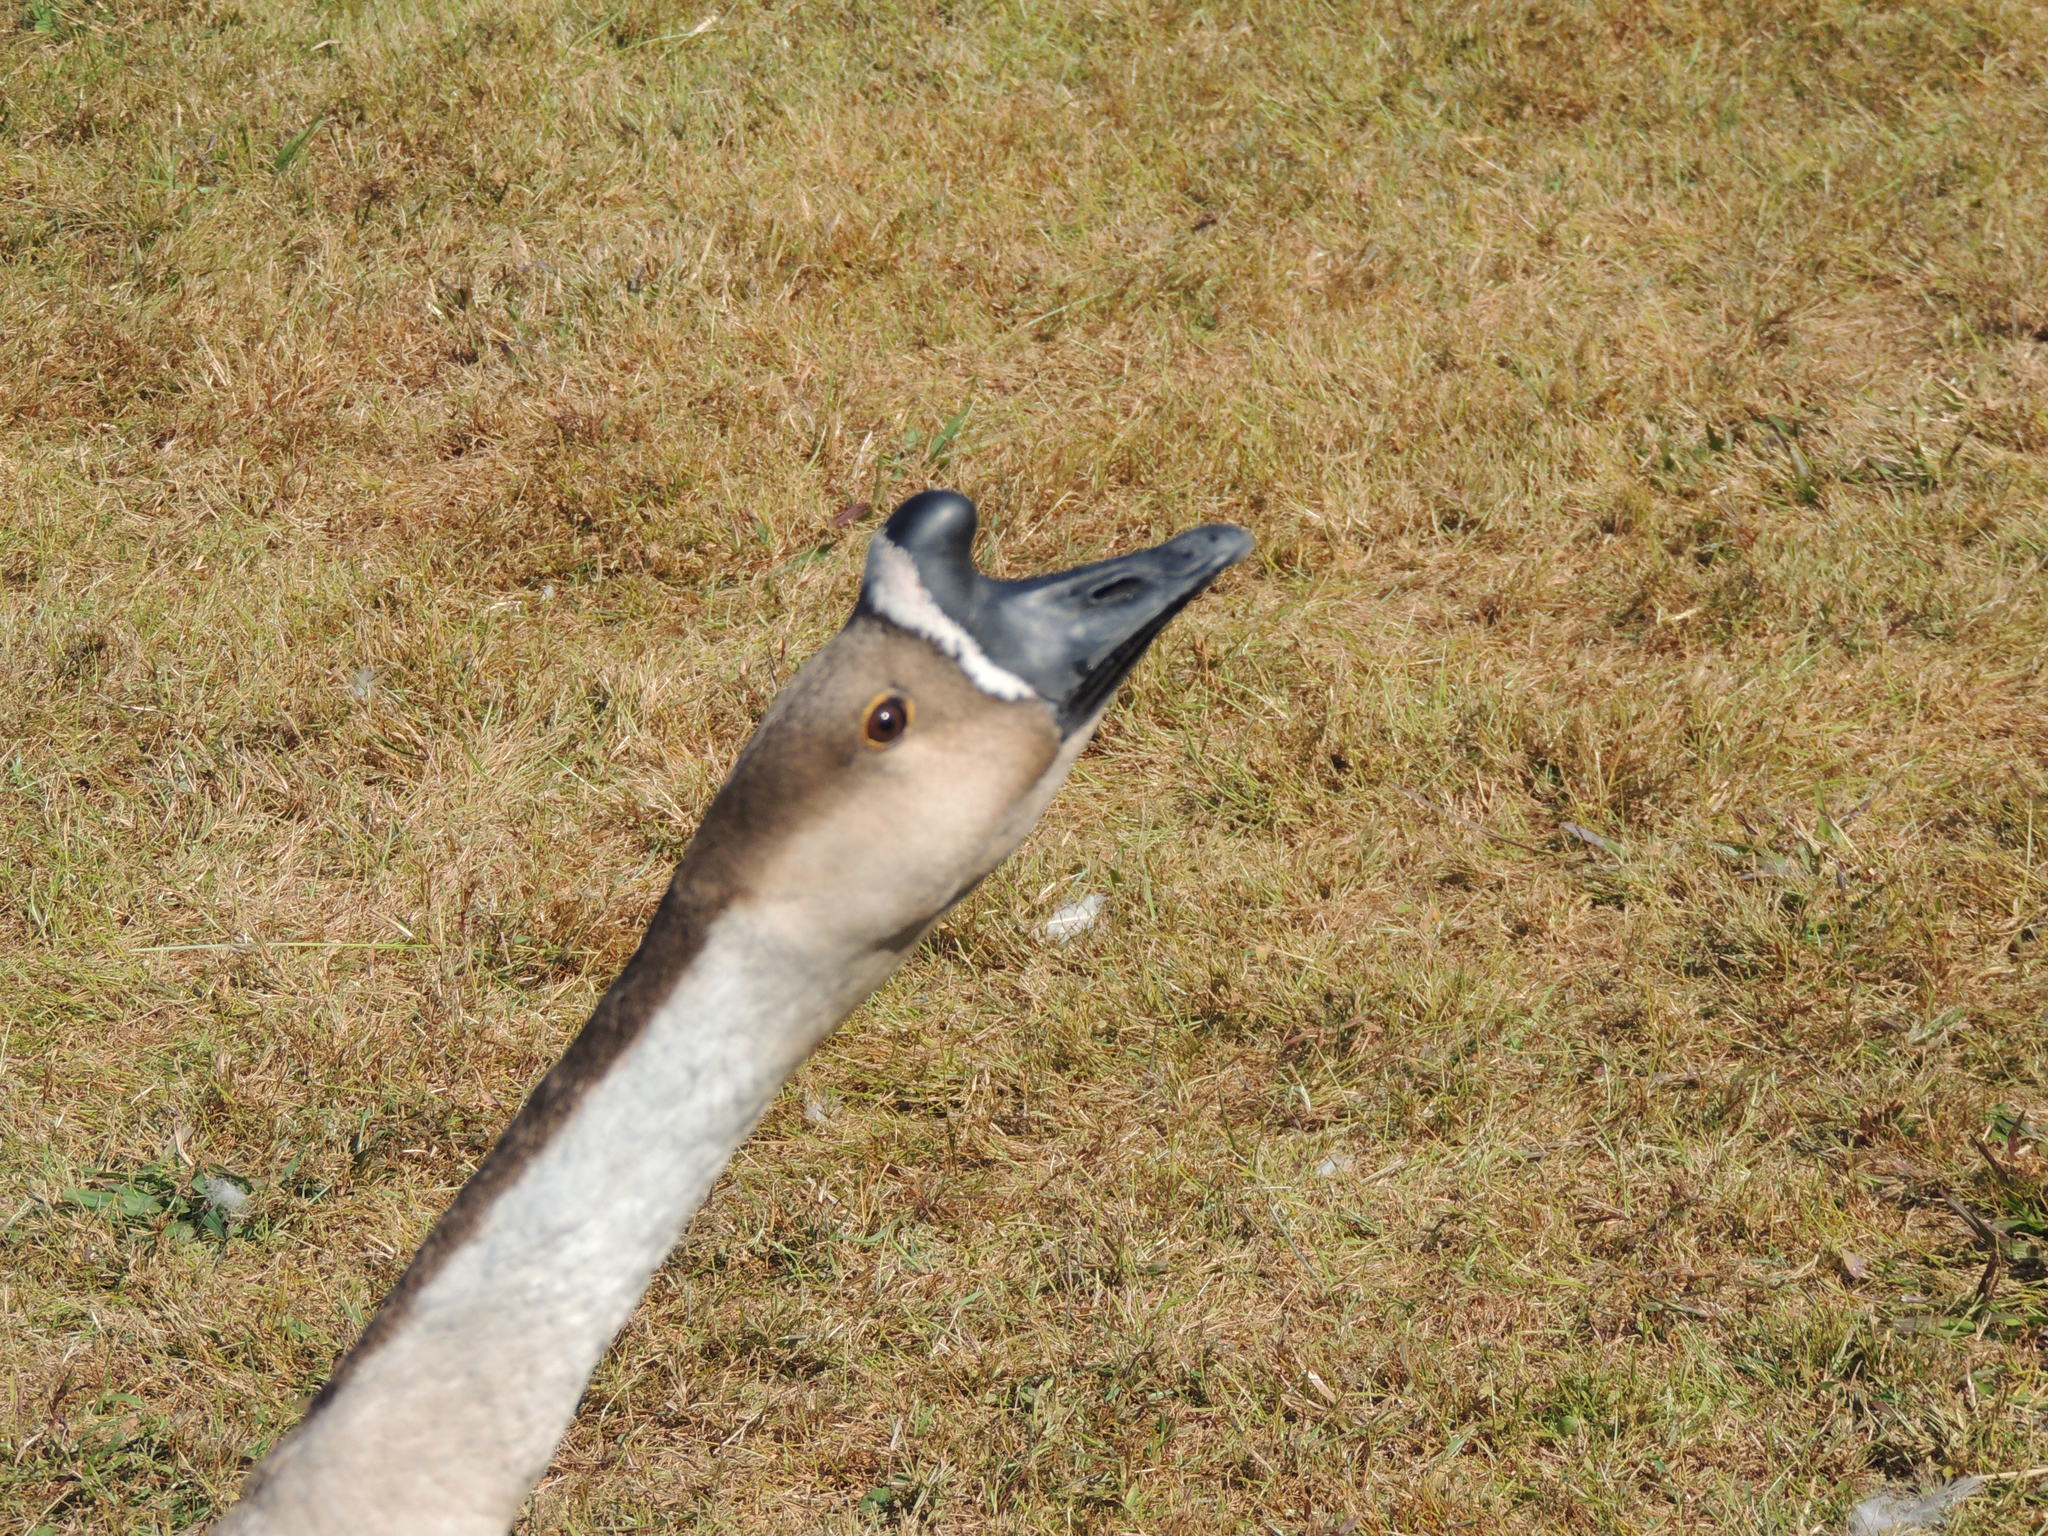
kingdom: Animalia
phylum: Chordata
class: Aves
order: Anseriformes
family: Anatidae
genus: Anser
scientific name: Anser cygnoides
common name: Swan goose
